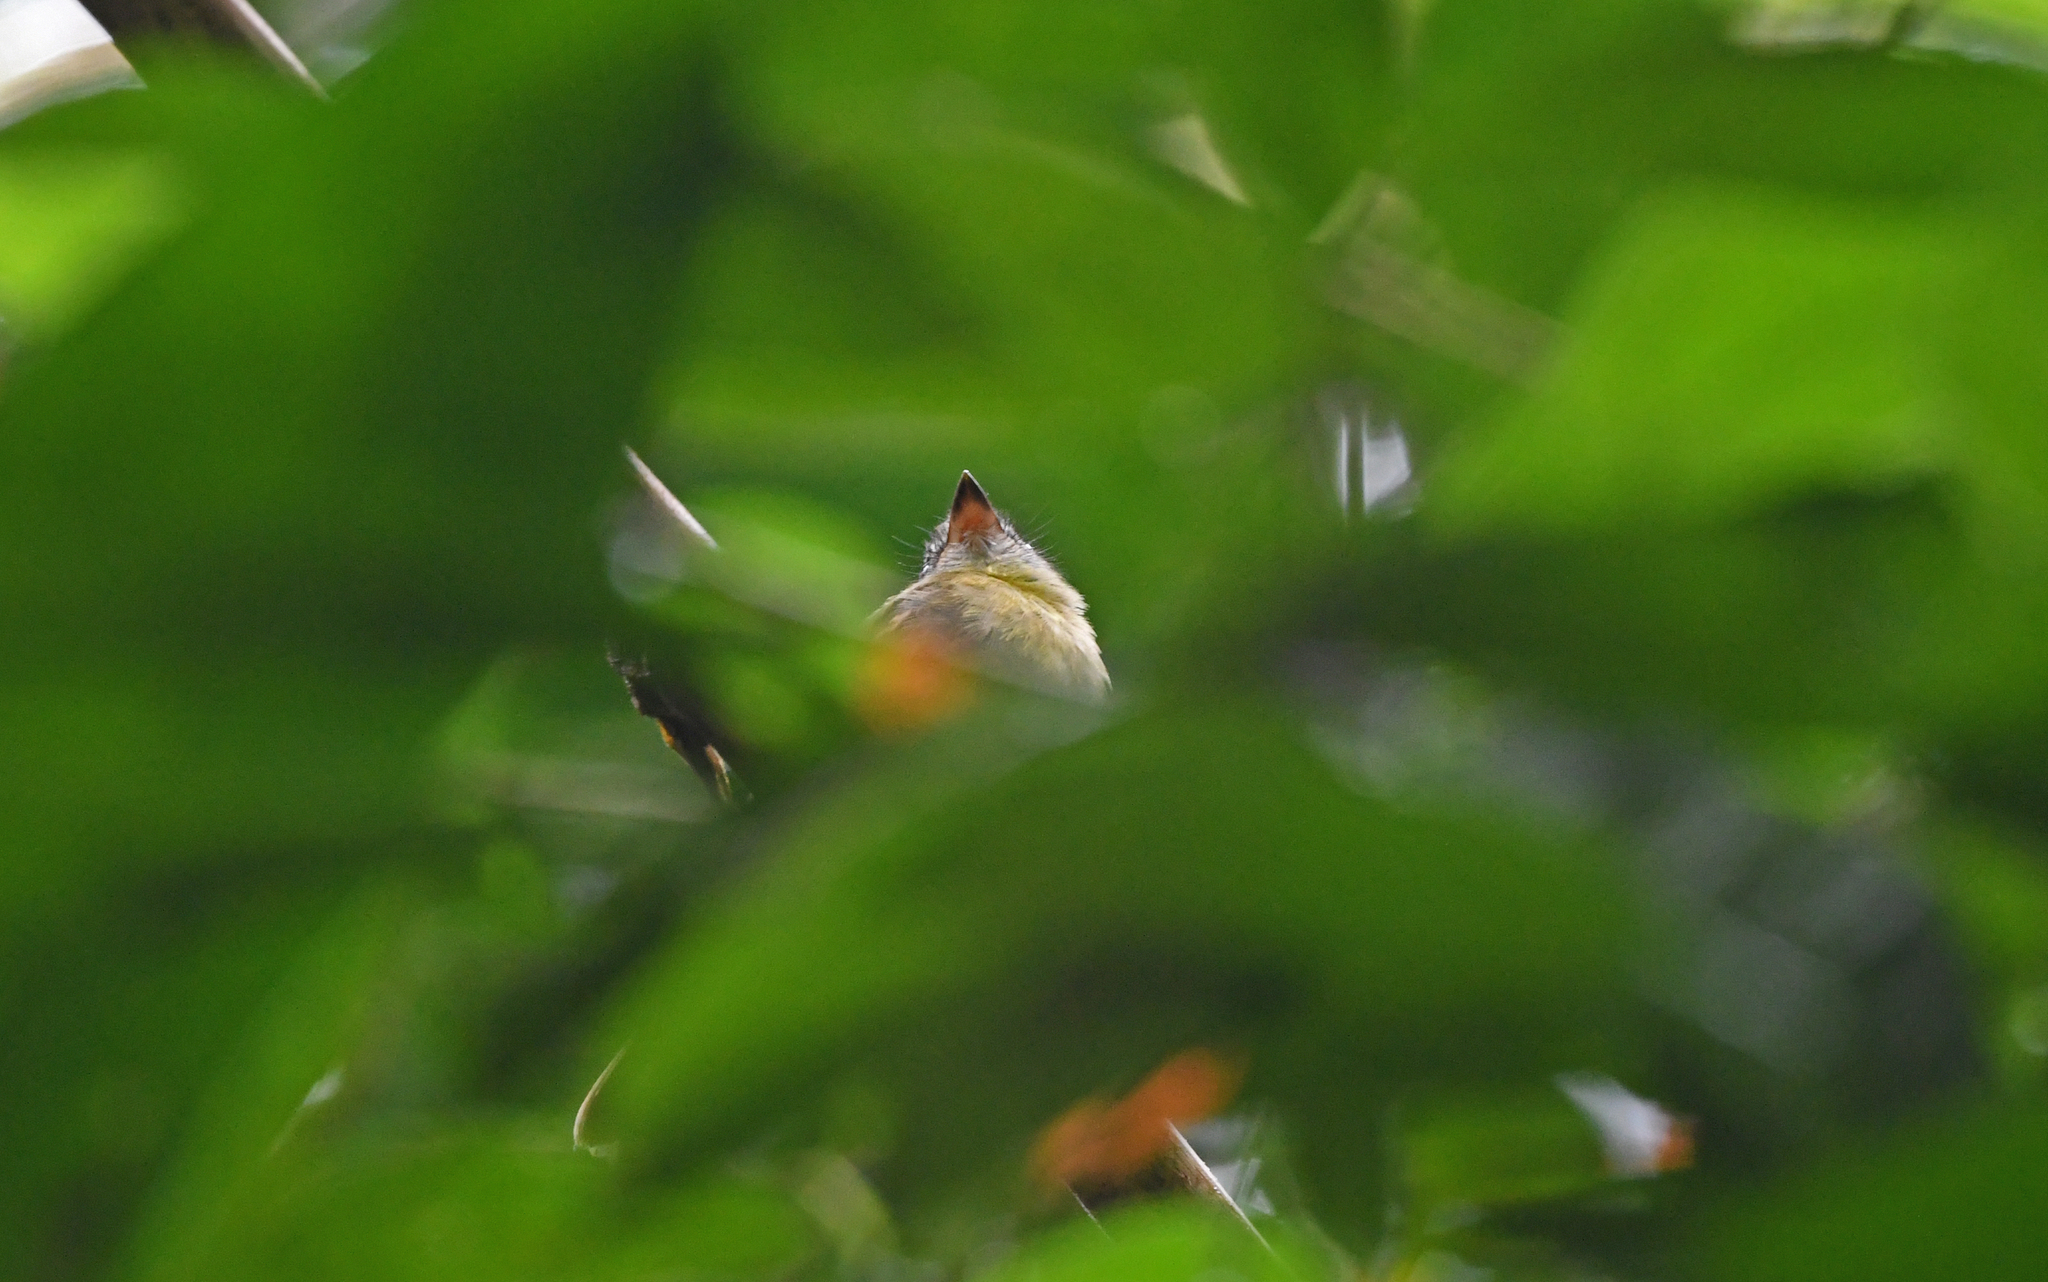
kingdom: Animalia
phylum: Chordata
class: Aves
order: Passeriformes
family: Tyrannidae
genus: Aphanotriccus
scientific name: Aphanotriccus audax
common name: Black-billed flycatcher
